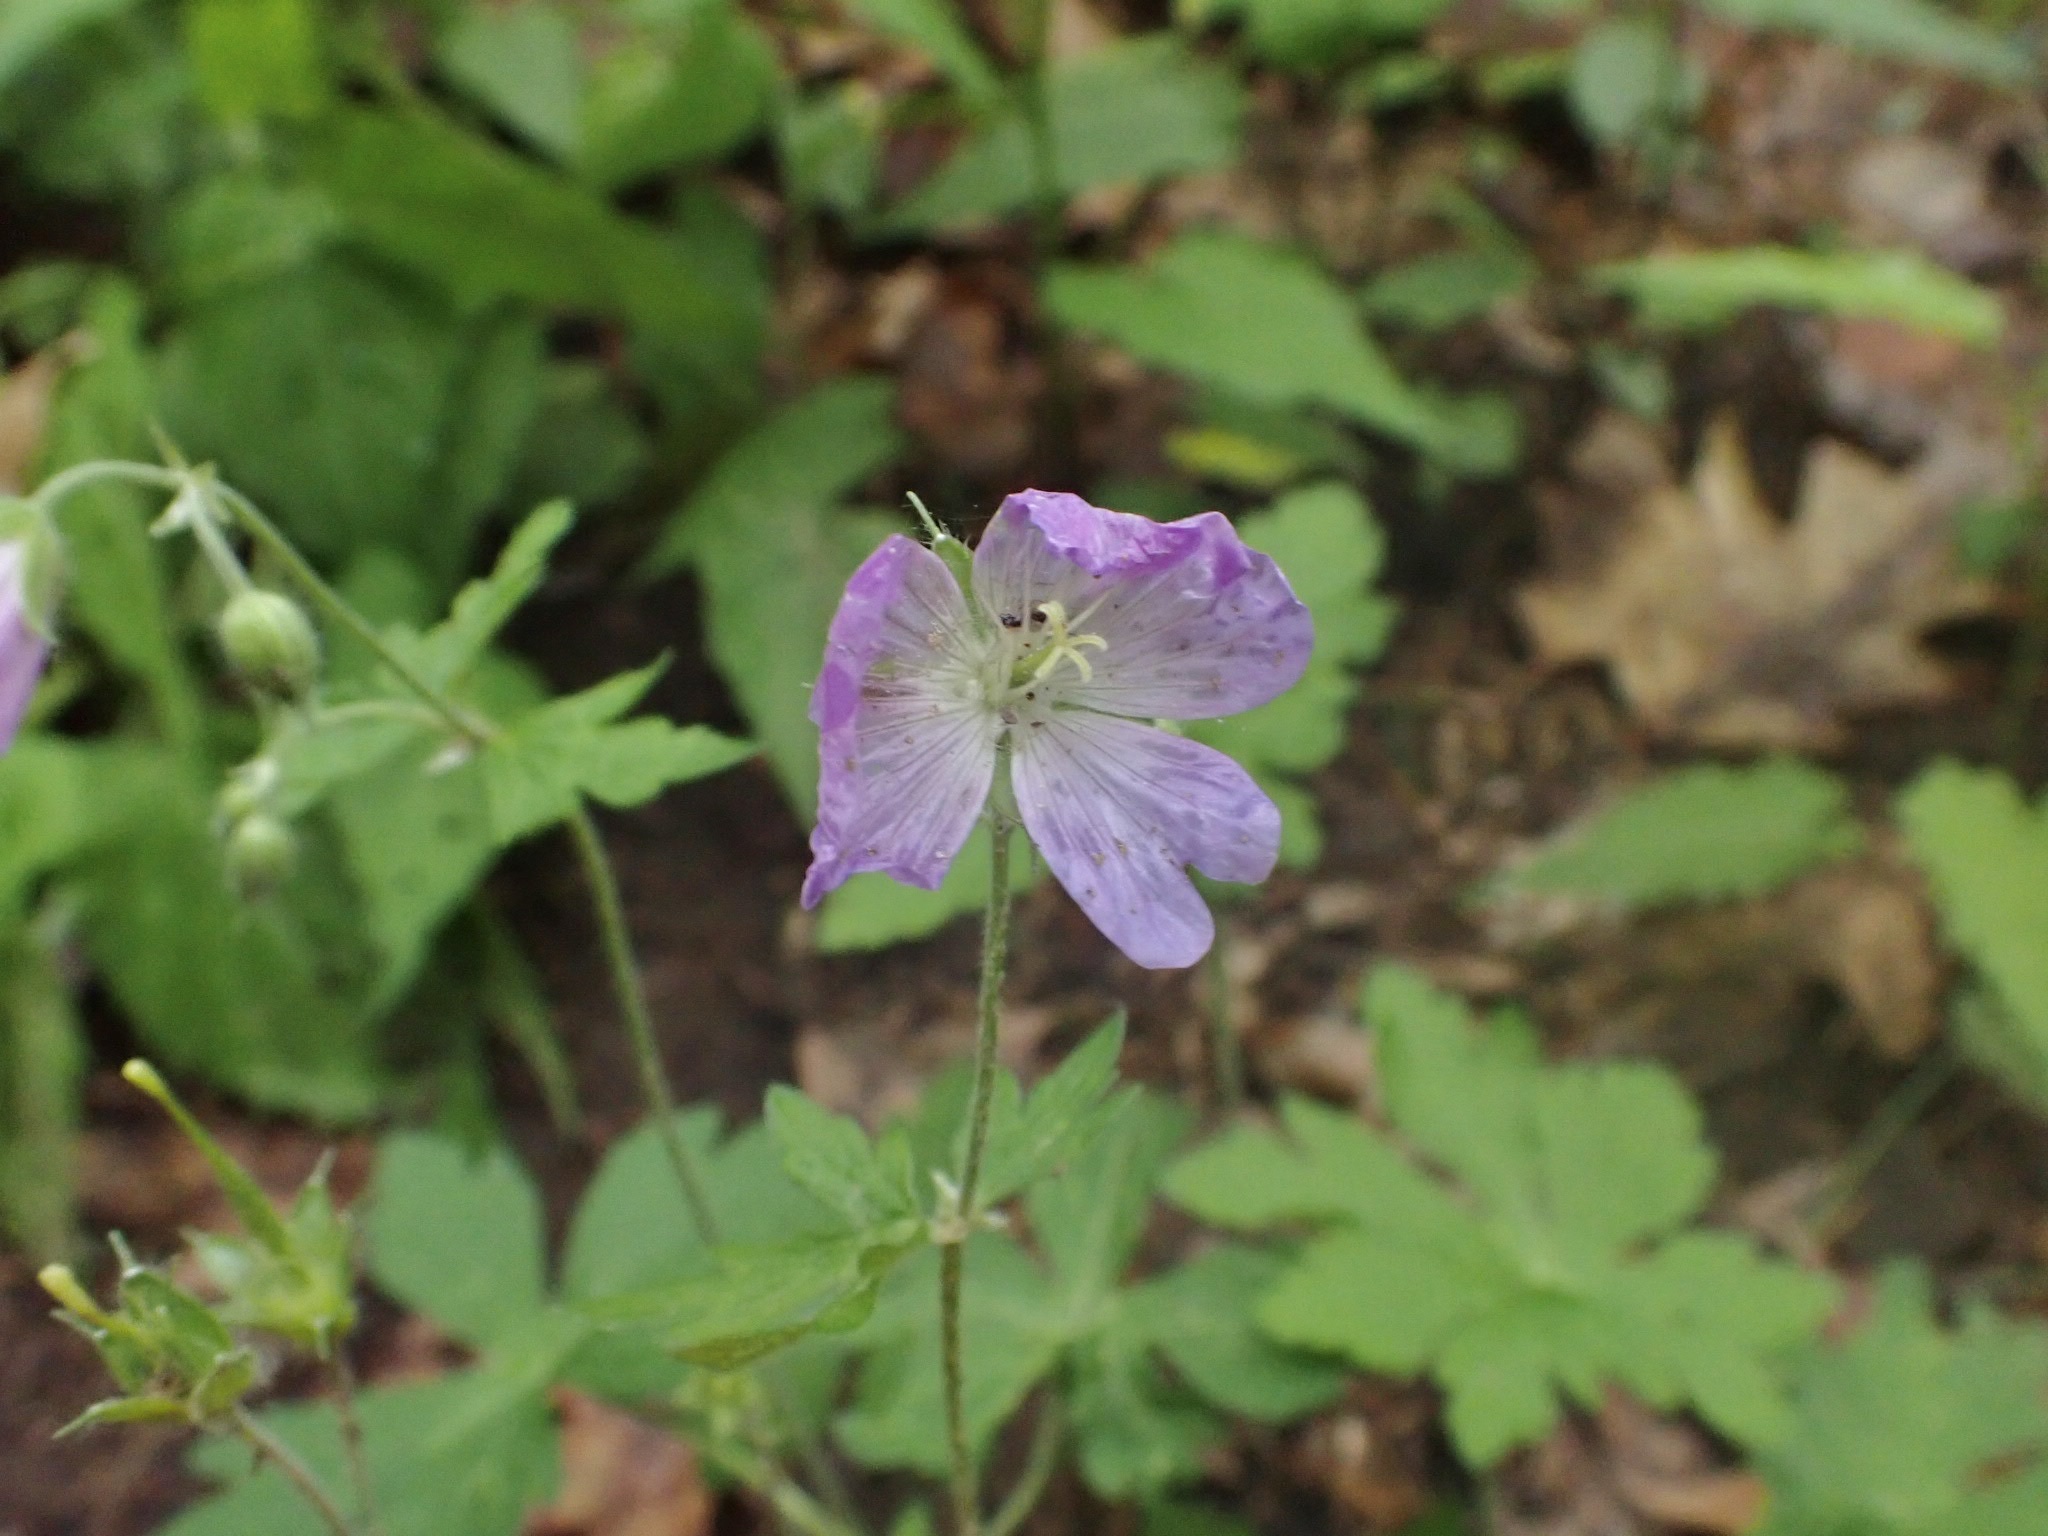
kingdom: Plantae
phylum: Tracheophyta
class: Magnoliopsida
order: Geraniales
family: Geraniaceae
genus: Geranium
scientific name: Geranium maculatum
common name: Spotted geranium
